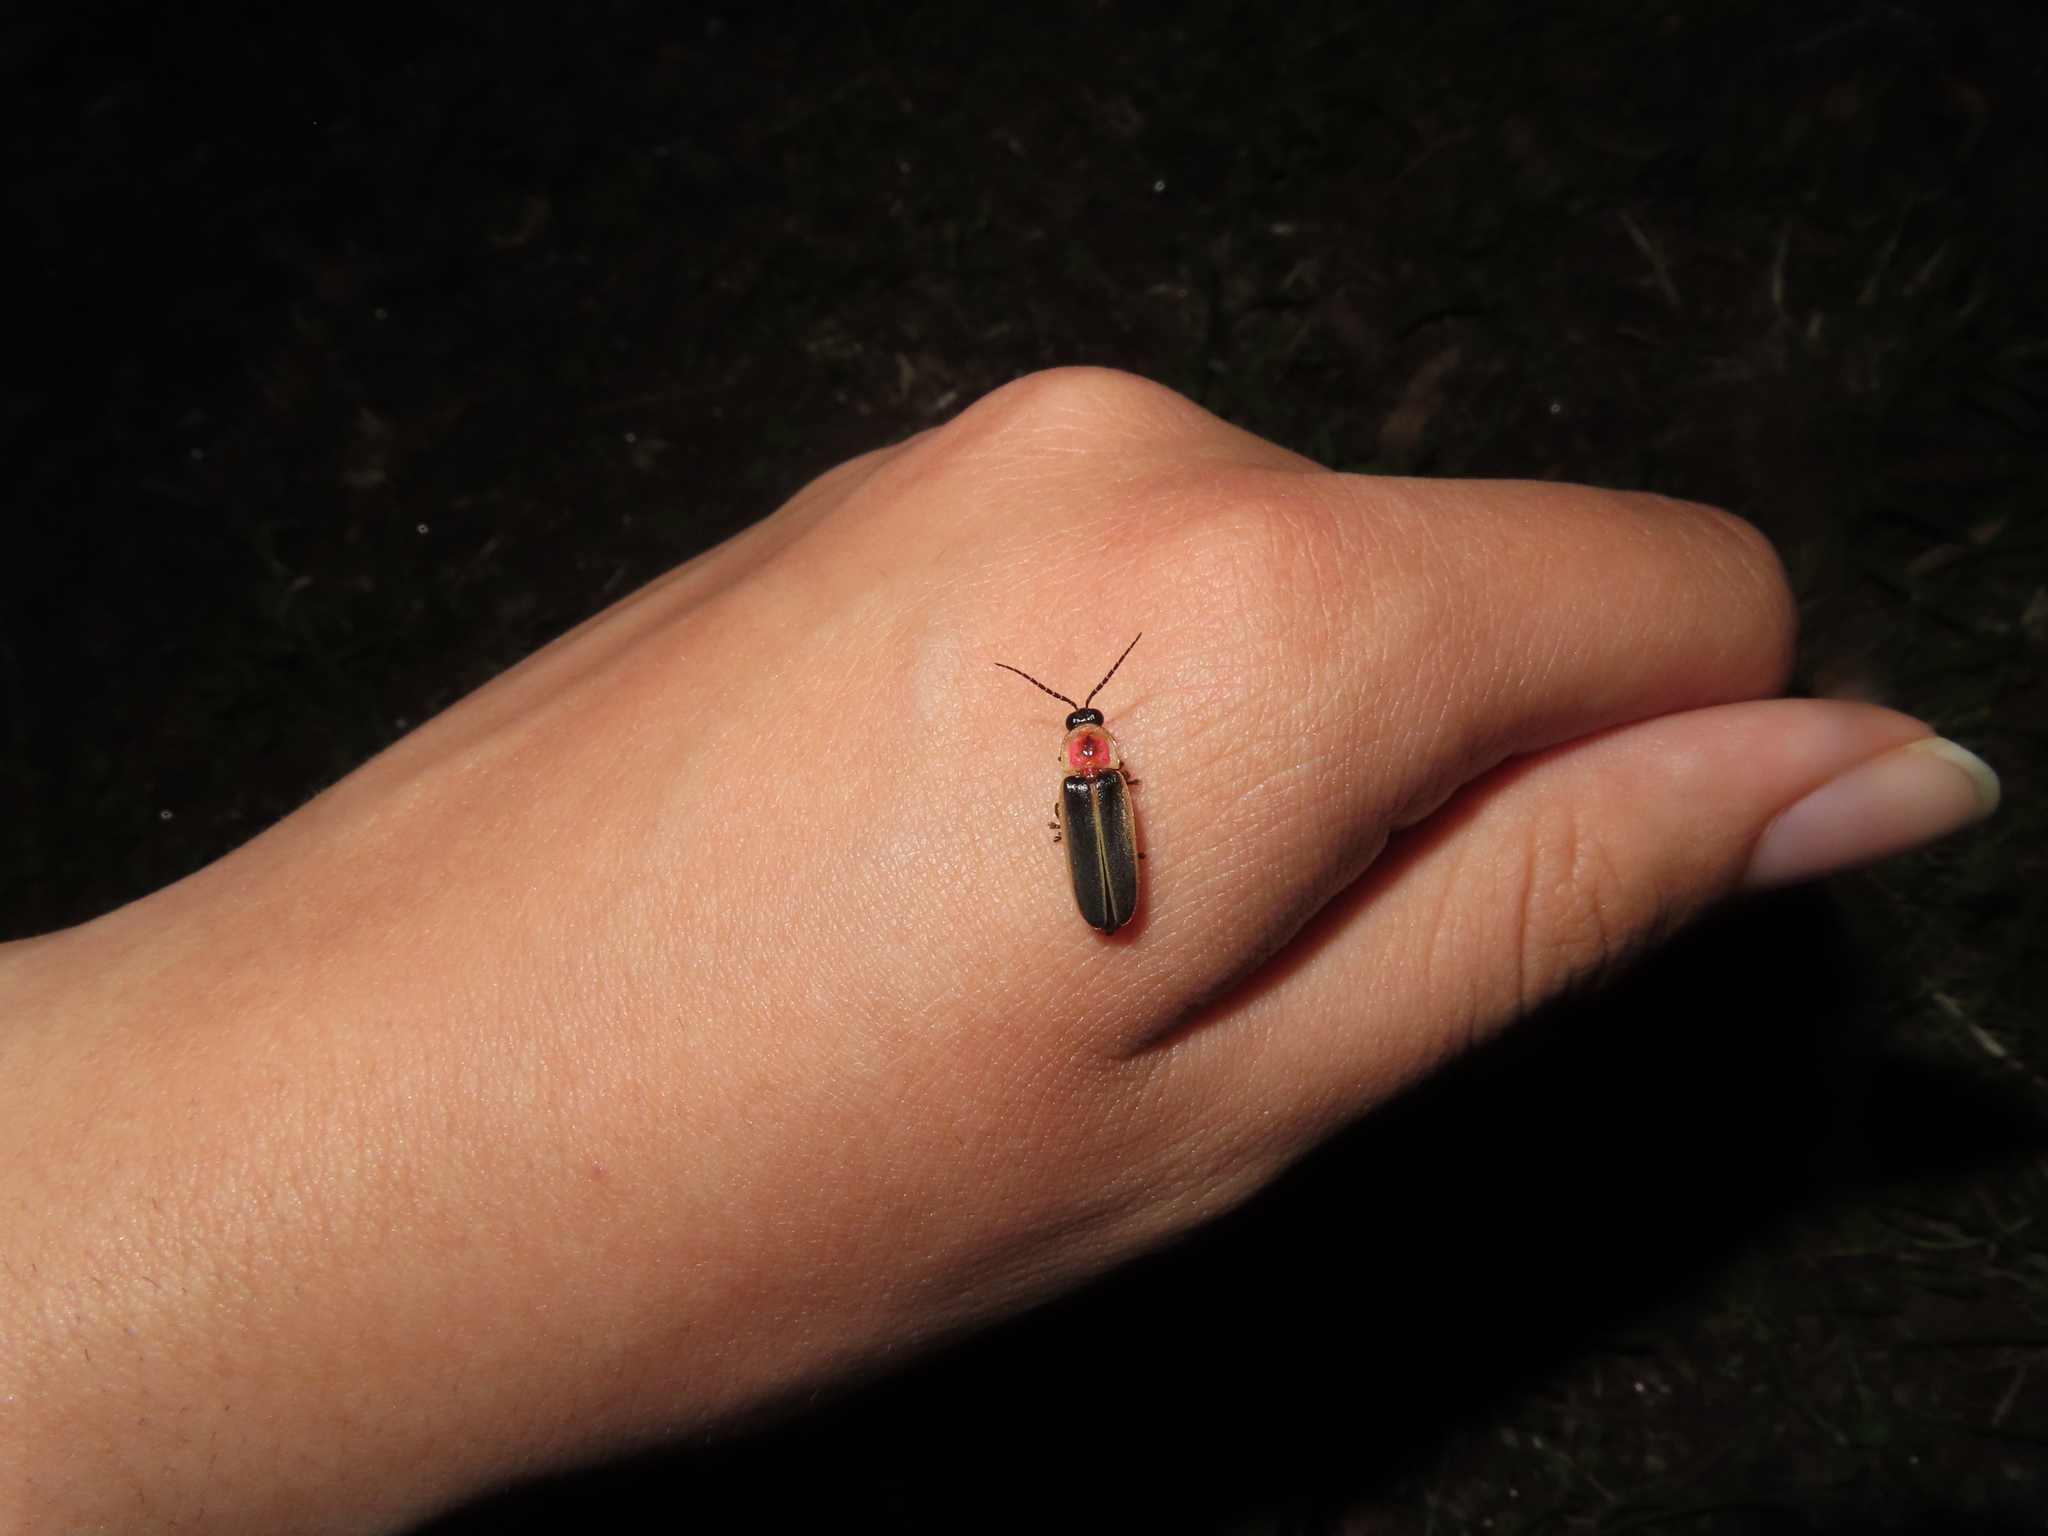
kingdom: Animalia
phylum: Arthropoda
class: Insecta
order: Coleoptera
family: Lampyridae
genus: Photinus
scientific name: Photinus pyralis
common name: Big dipper firefly
